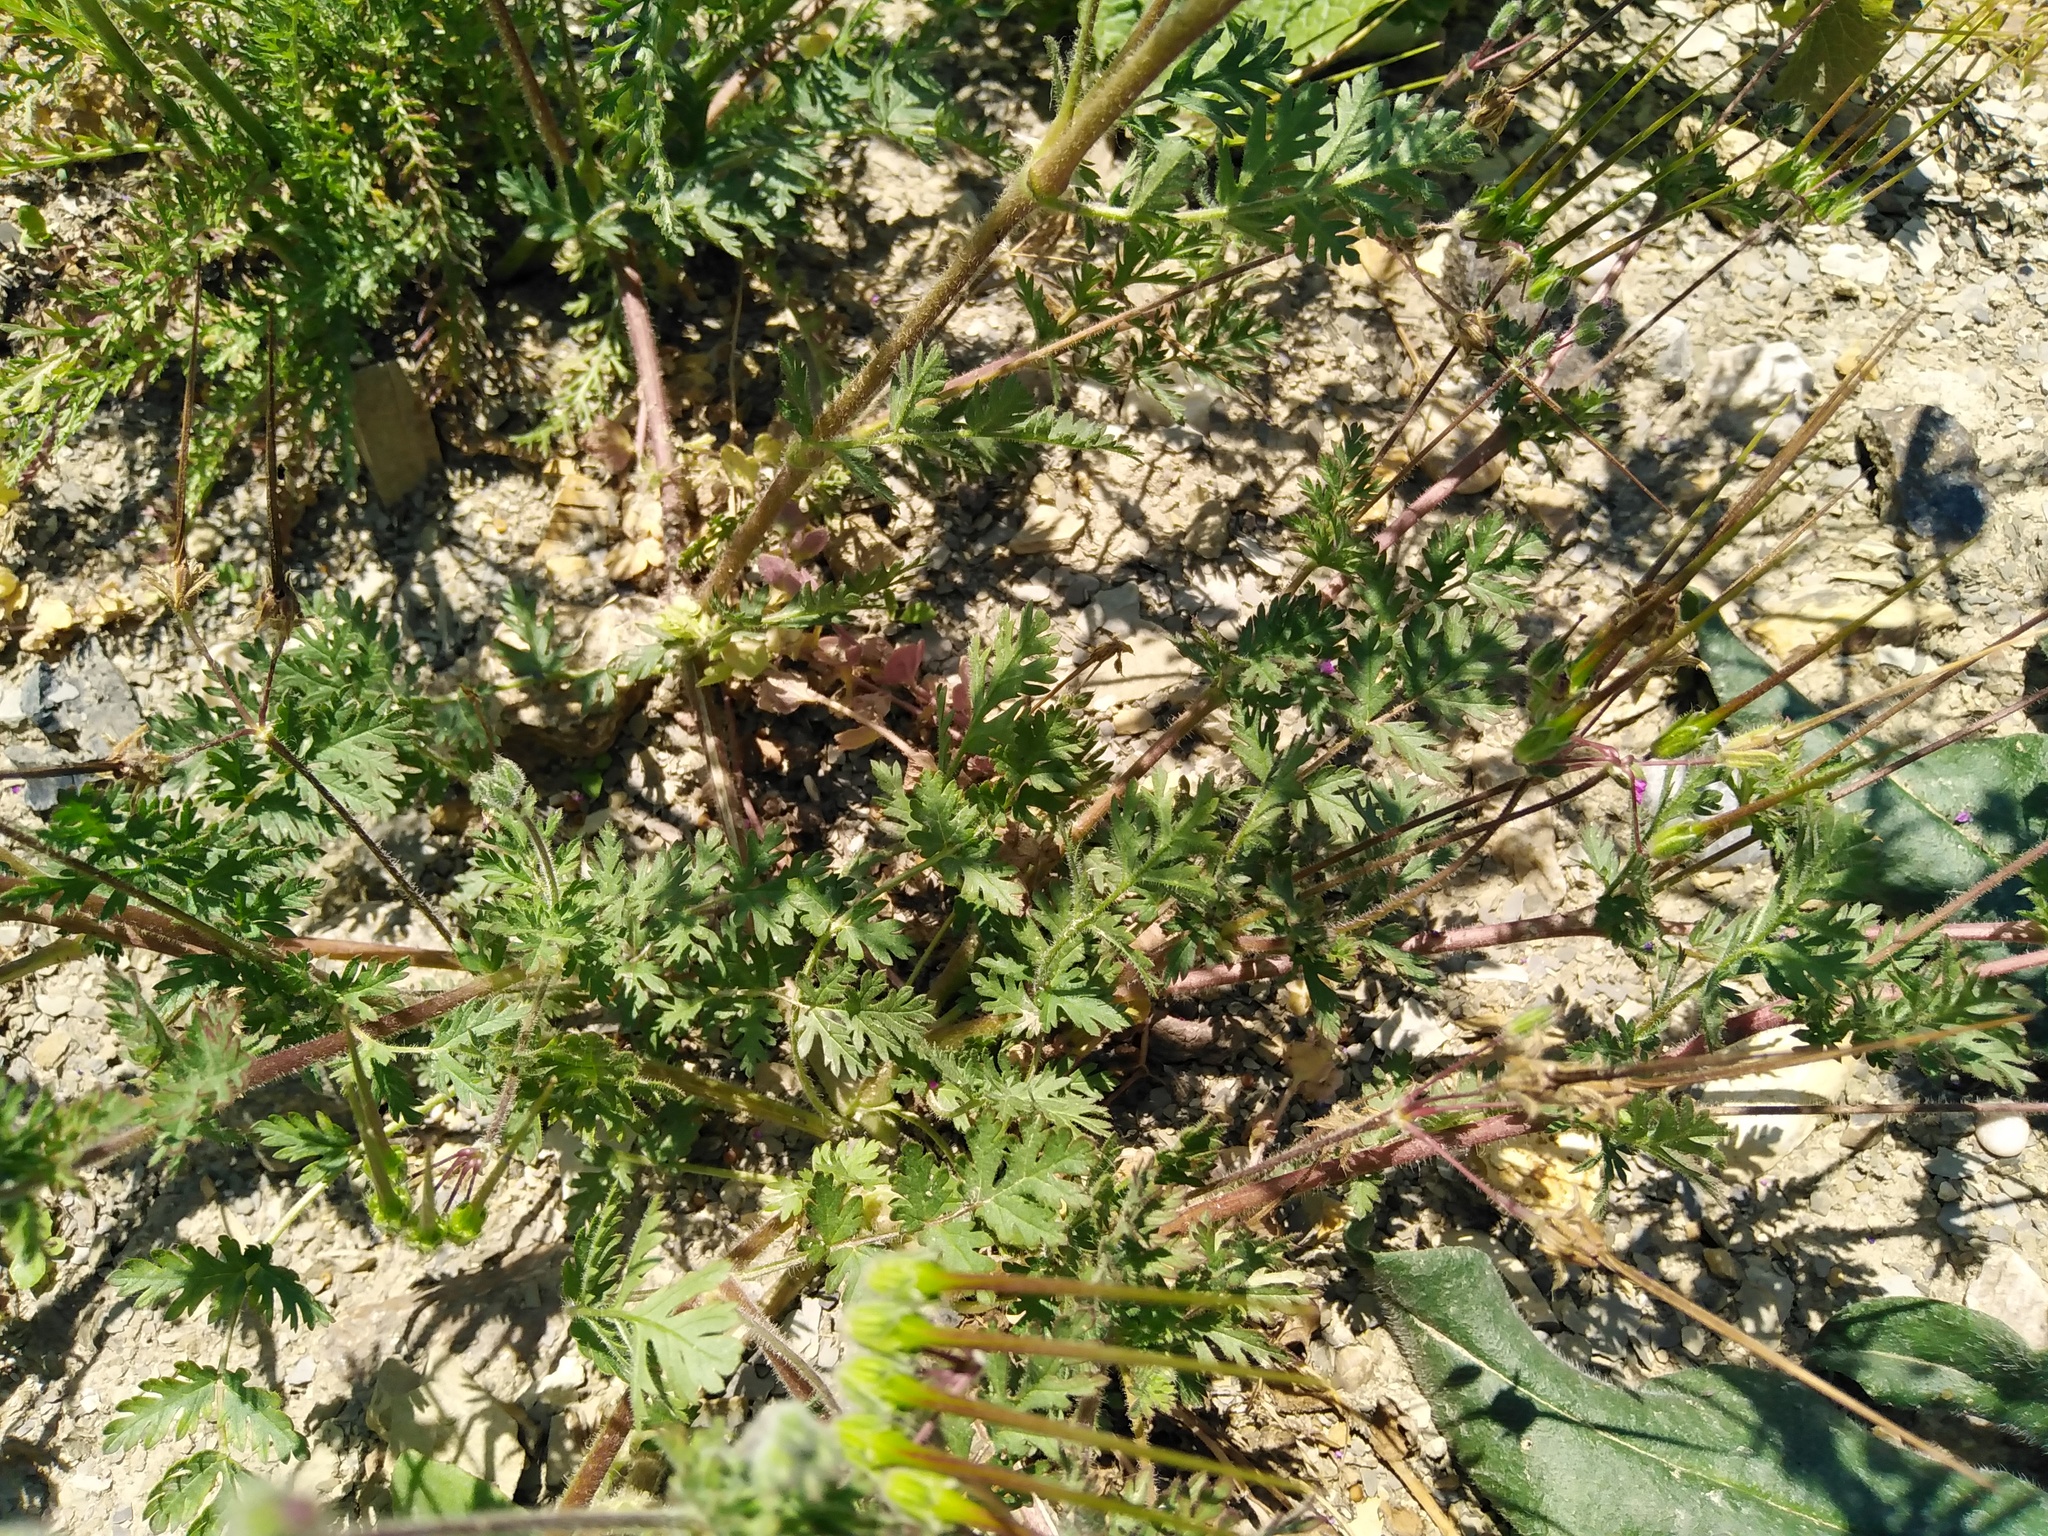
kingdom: Plantae
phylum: Tracheophyta
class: Magnoliopsida
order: Geraniales
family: Geraniaceae
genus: Erodium
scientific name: Erodium cicutarium
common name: Common stork's-bill
